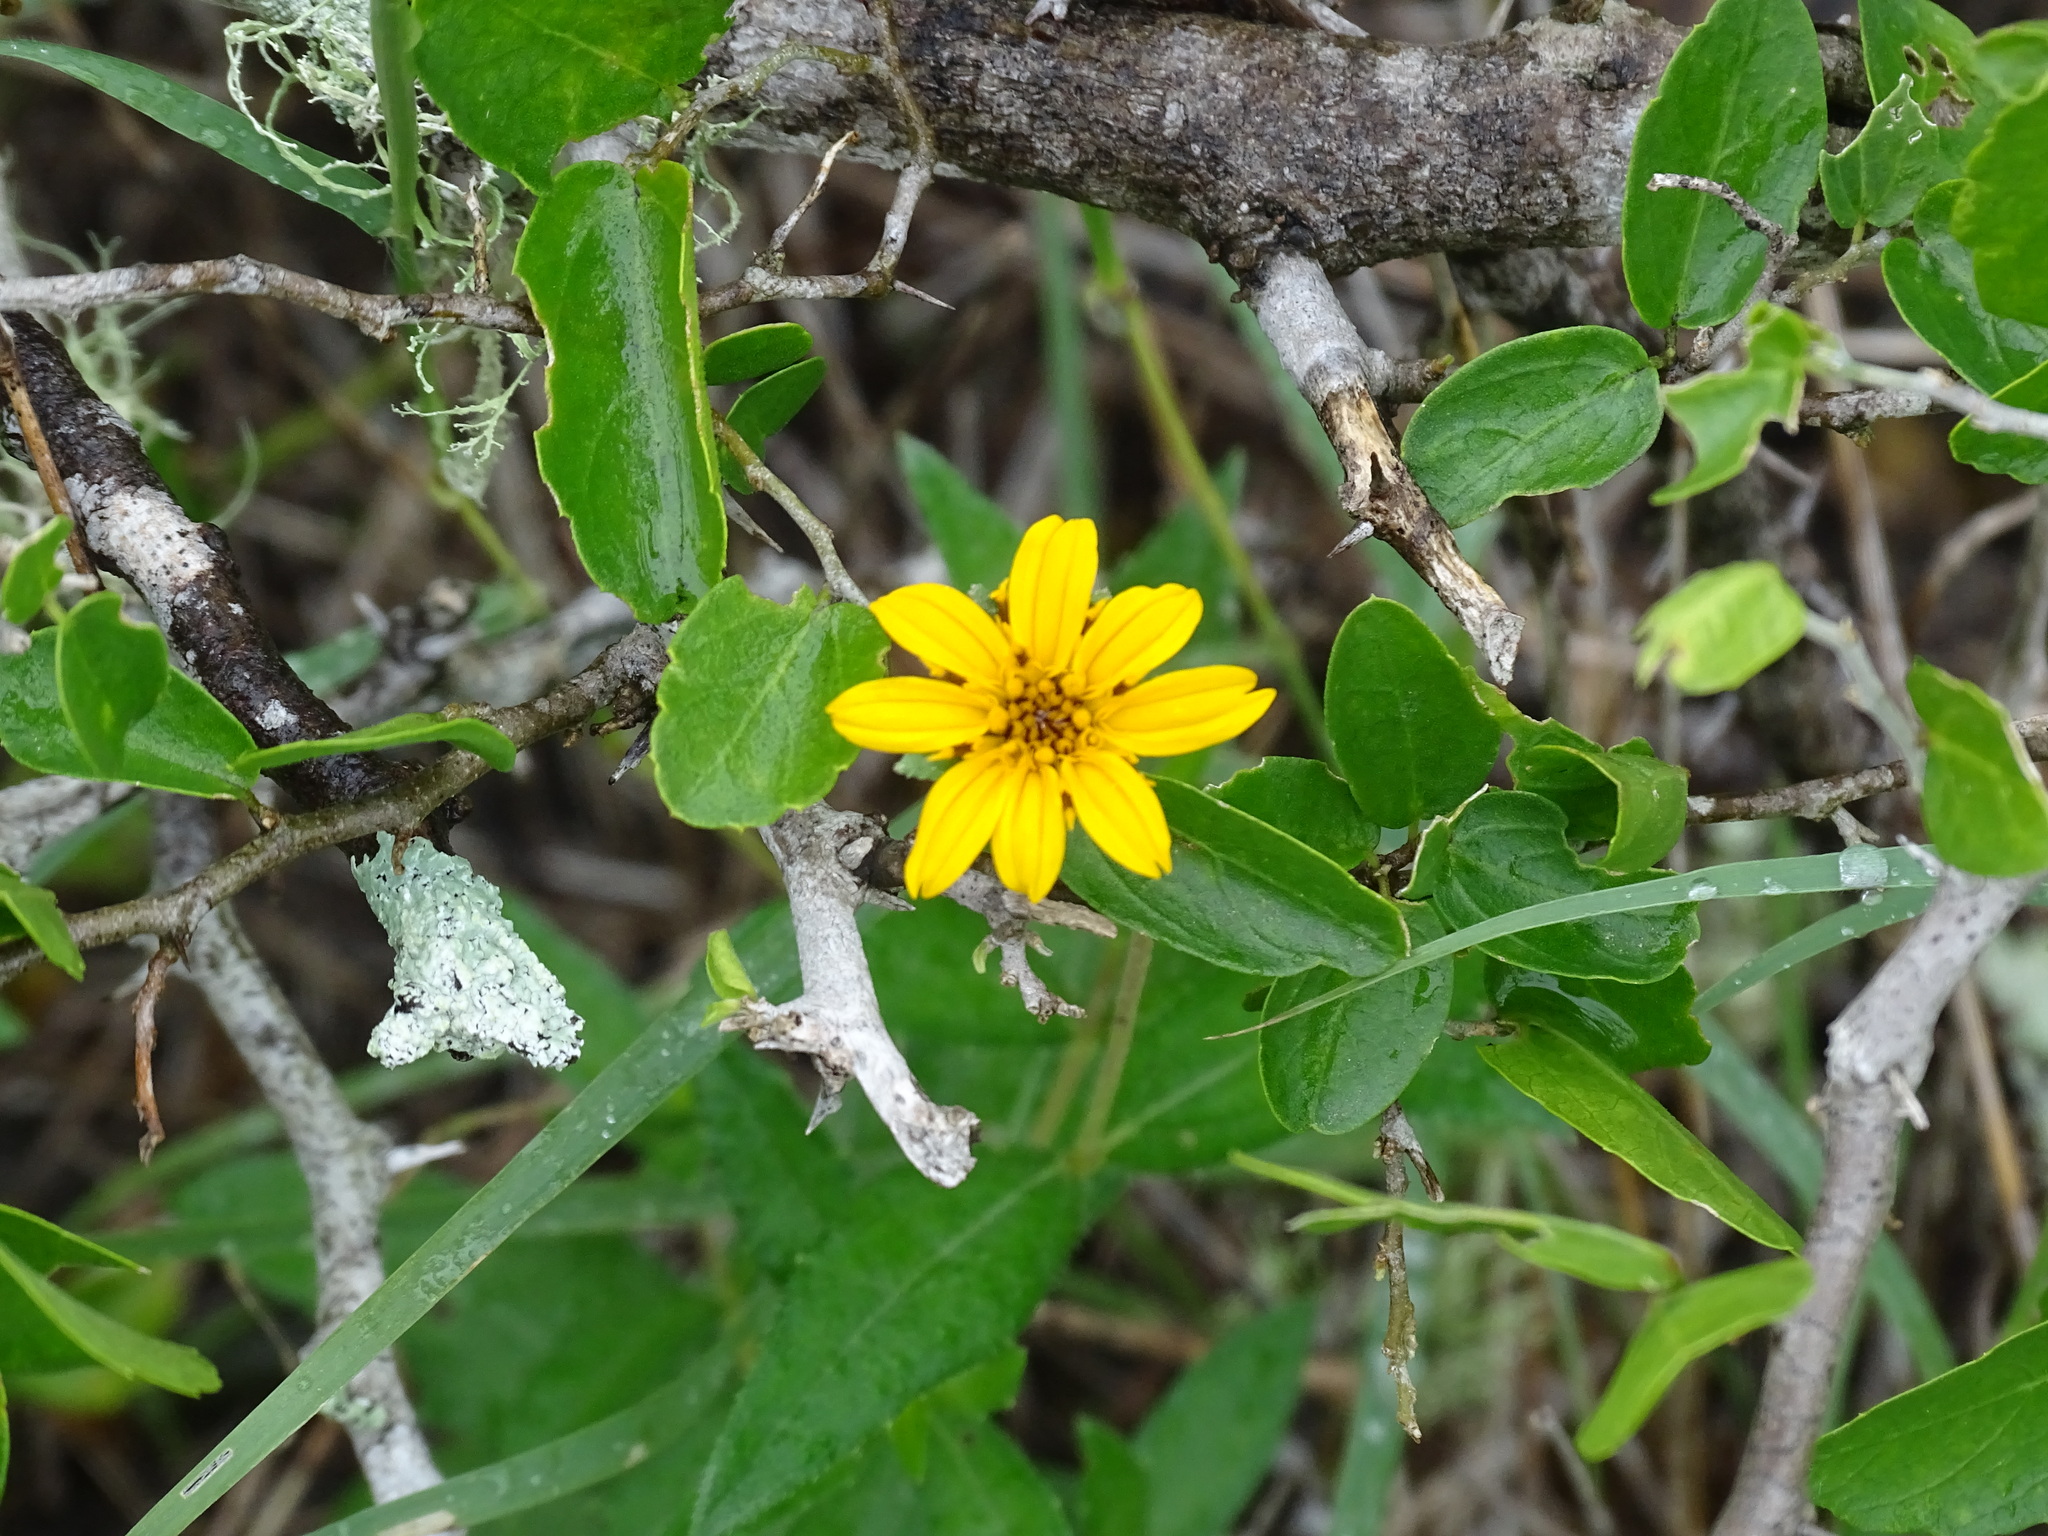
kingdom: Plantae
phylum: Tracheophyta
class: Magnoliopsida
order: Asterales
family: Asteraceae
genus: Wedelia
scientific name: Wedelia acapulcensis
